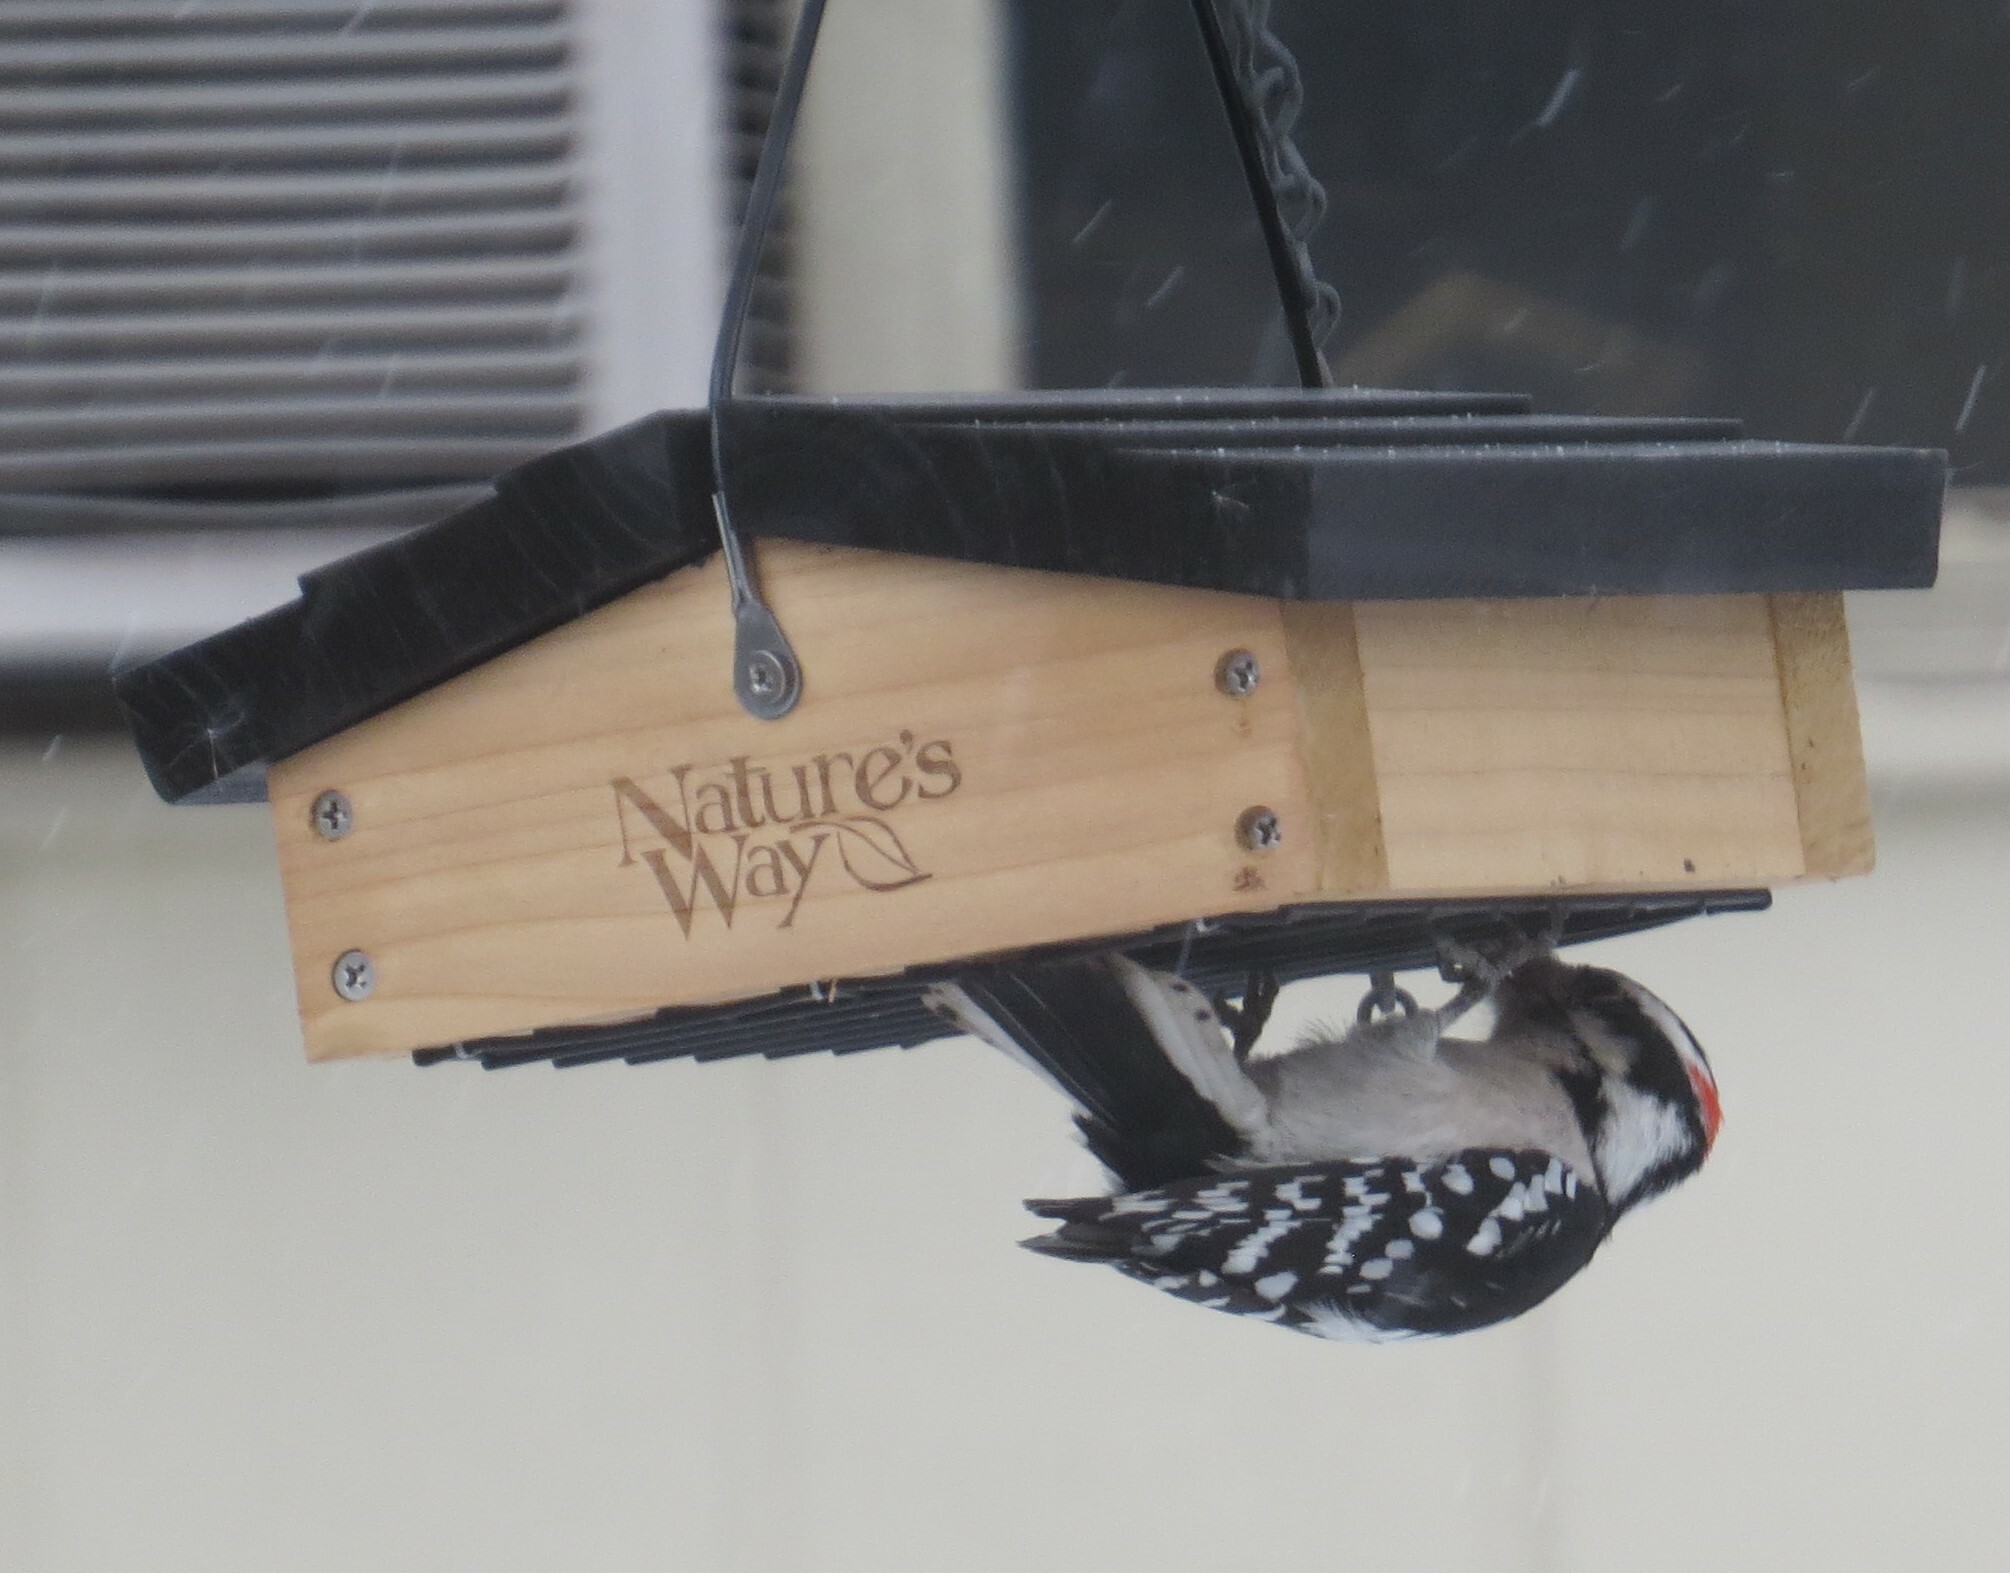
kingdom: Animalia
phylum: Chordata
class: Aves
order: Piciformes
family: Picidae
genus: Dryobates
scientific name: Dryobates pubescens
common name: Downy woodpecker
